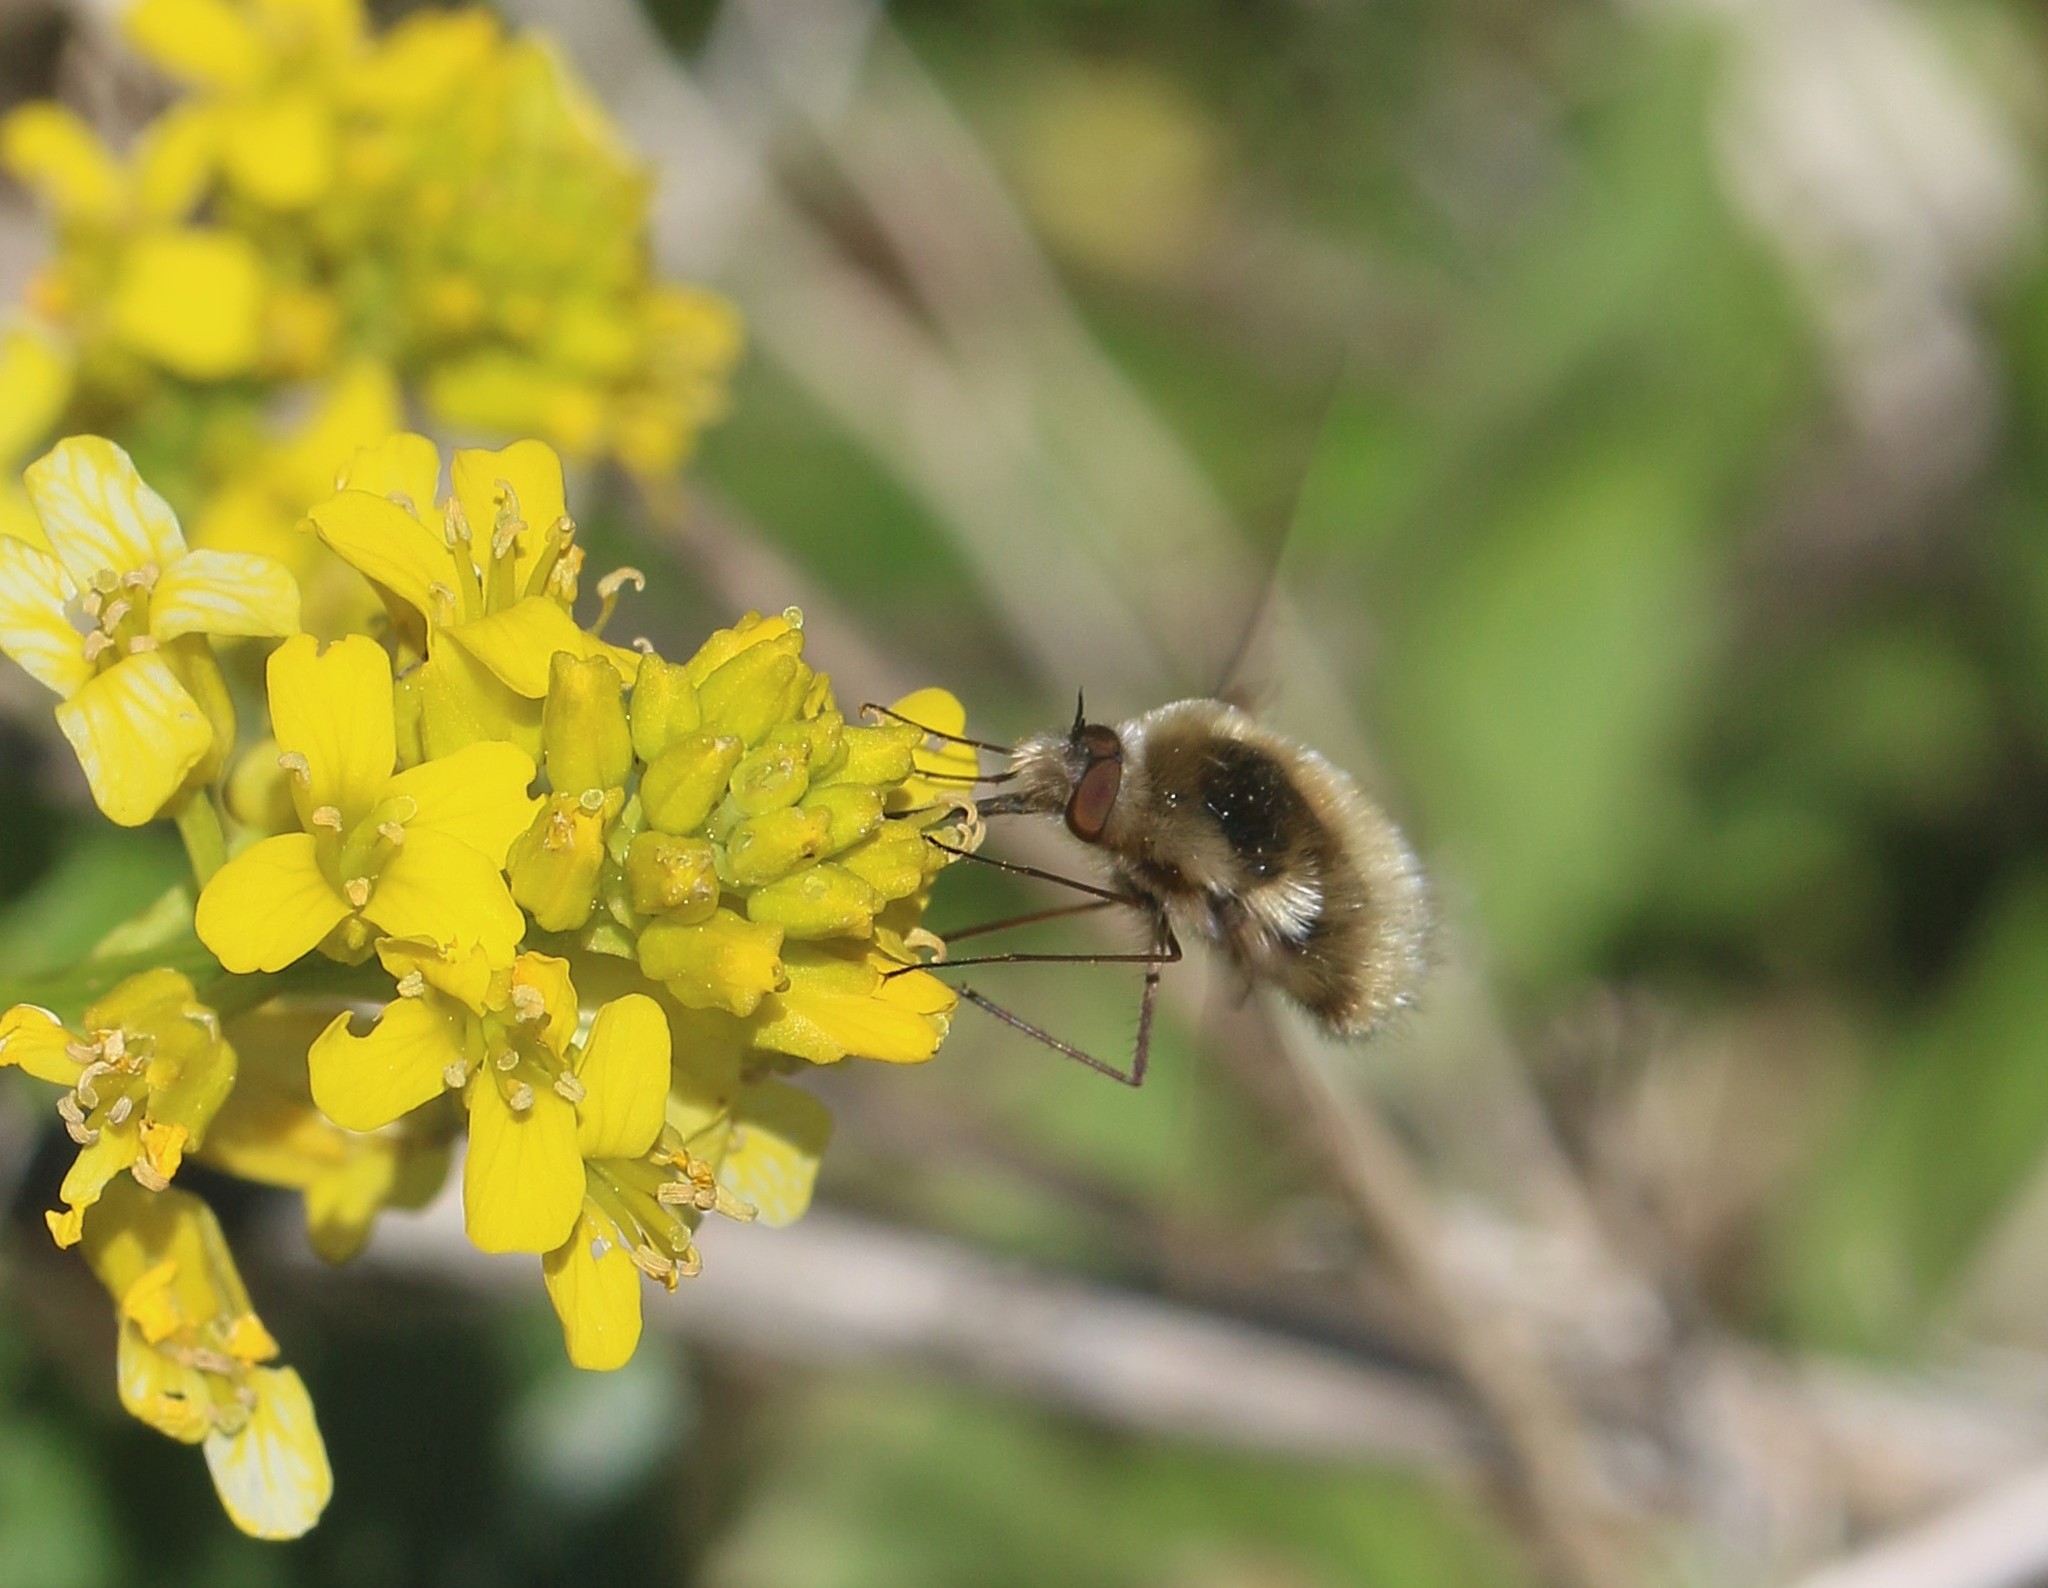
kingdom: Animalia
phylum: Arthropoda
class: Insecta
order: Diptera
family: Bombyliidae
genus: Bombylius
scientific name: Bombylius major
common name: Bee fly
